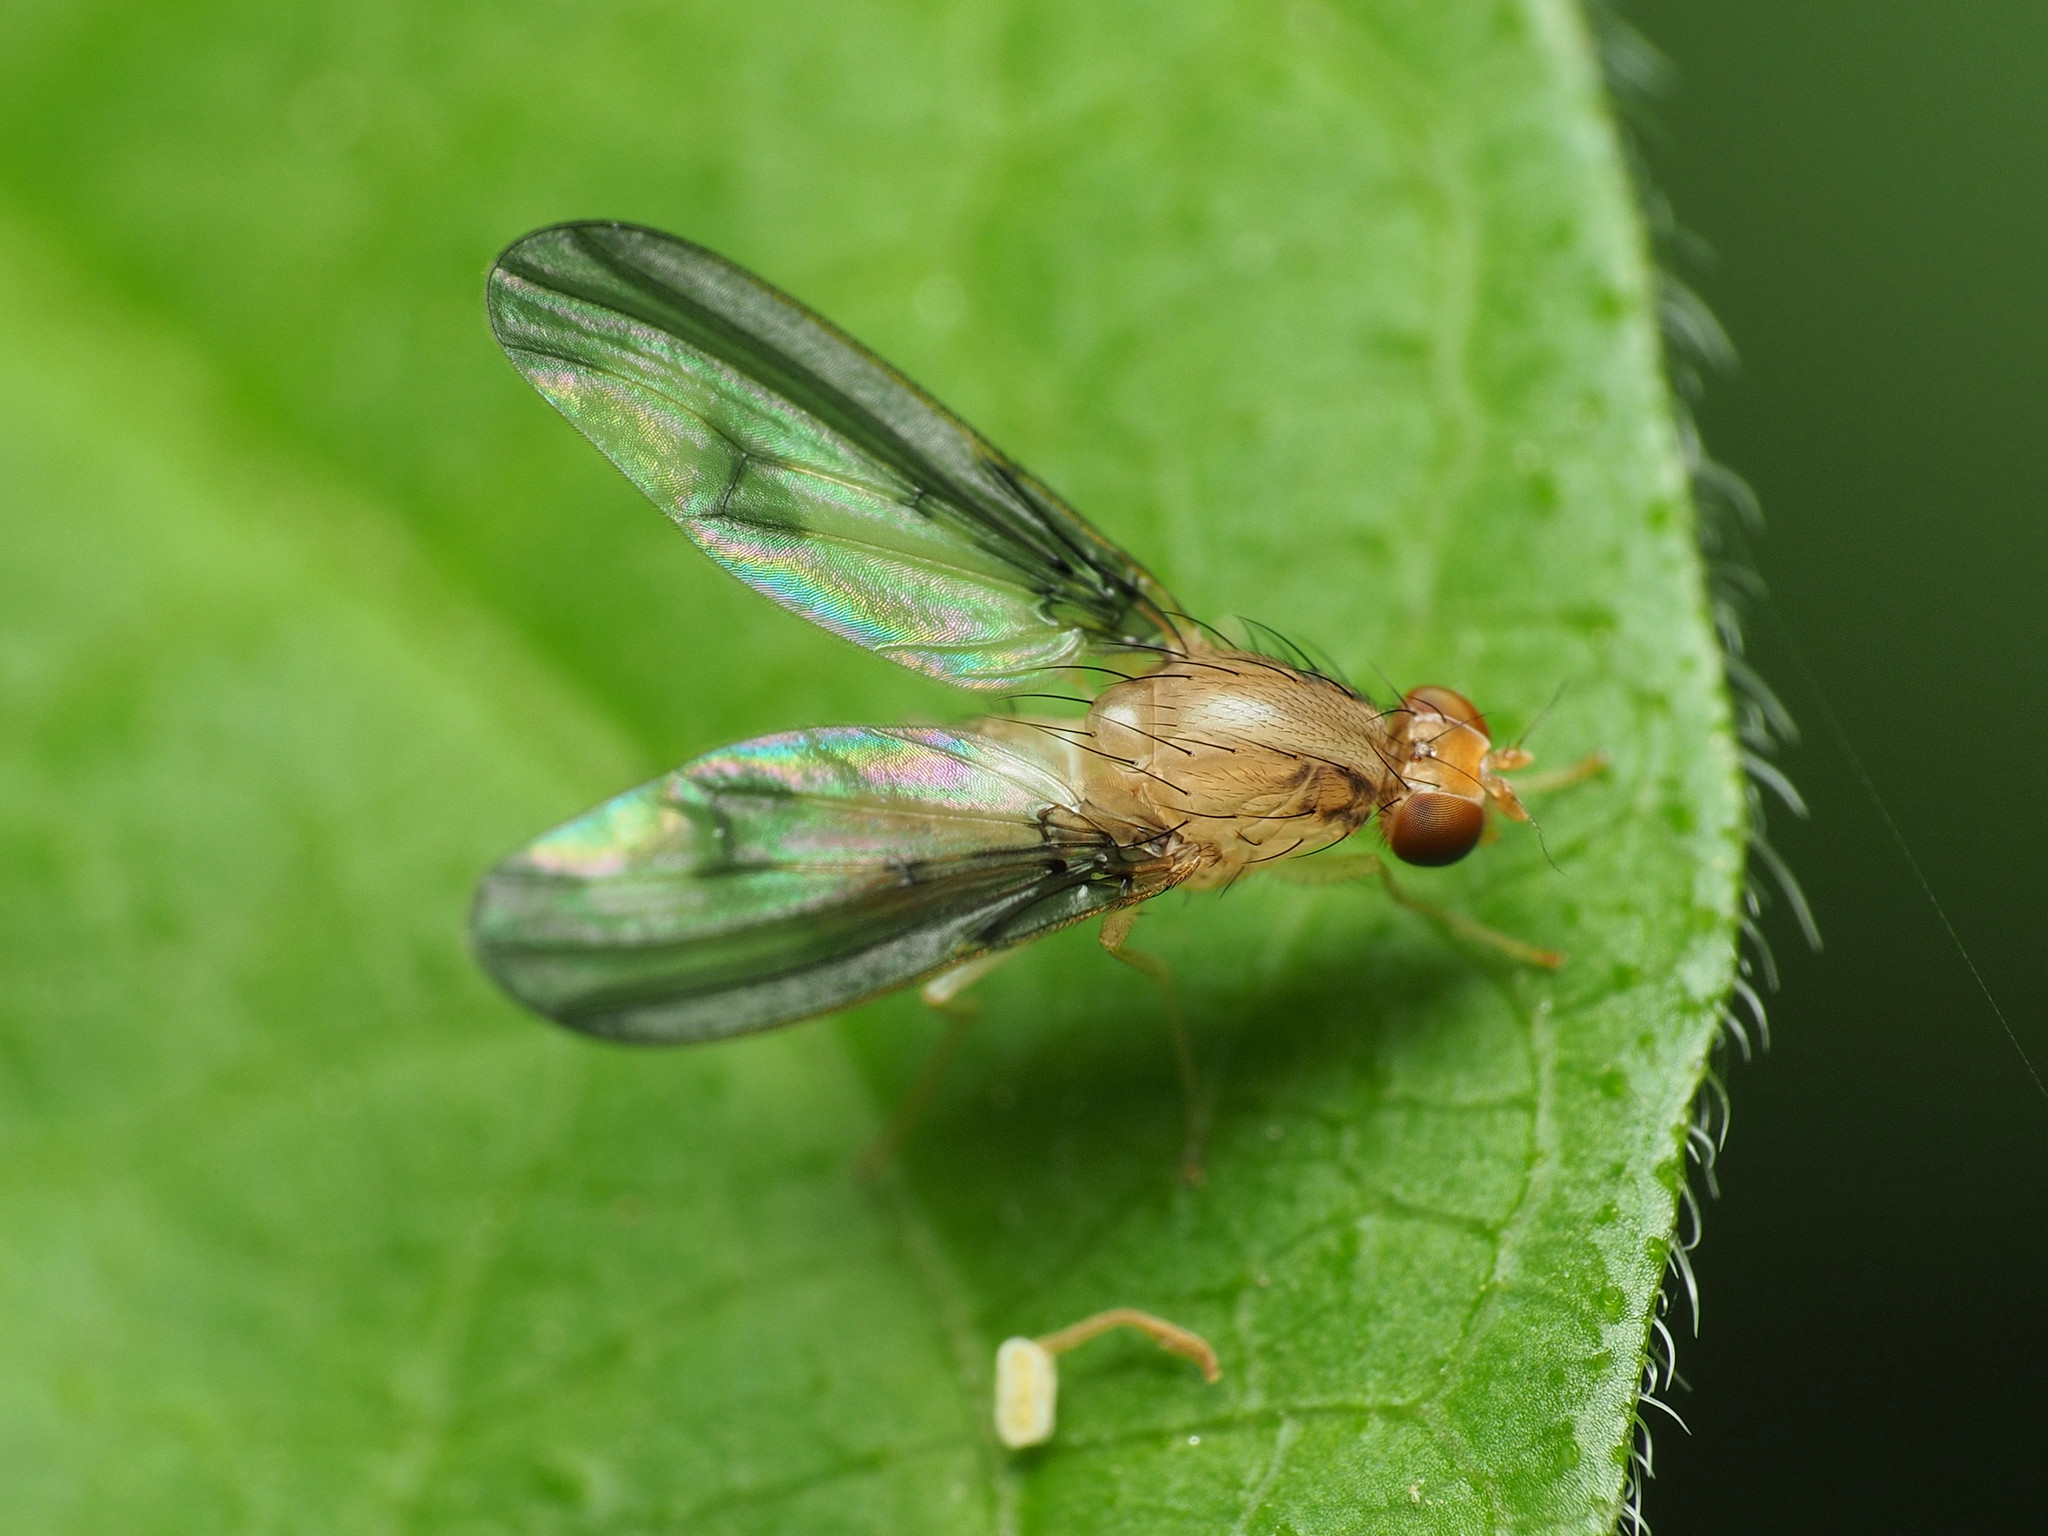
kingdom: Animalia
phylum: Arthropoda
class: Insecta
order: Diptera
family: Pallopteridae
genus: Toxonevra
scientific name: Toxonevra superba
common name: Antlered flutter fly
